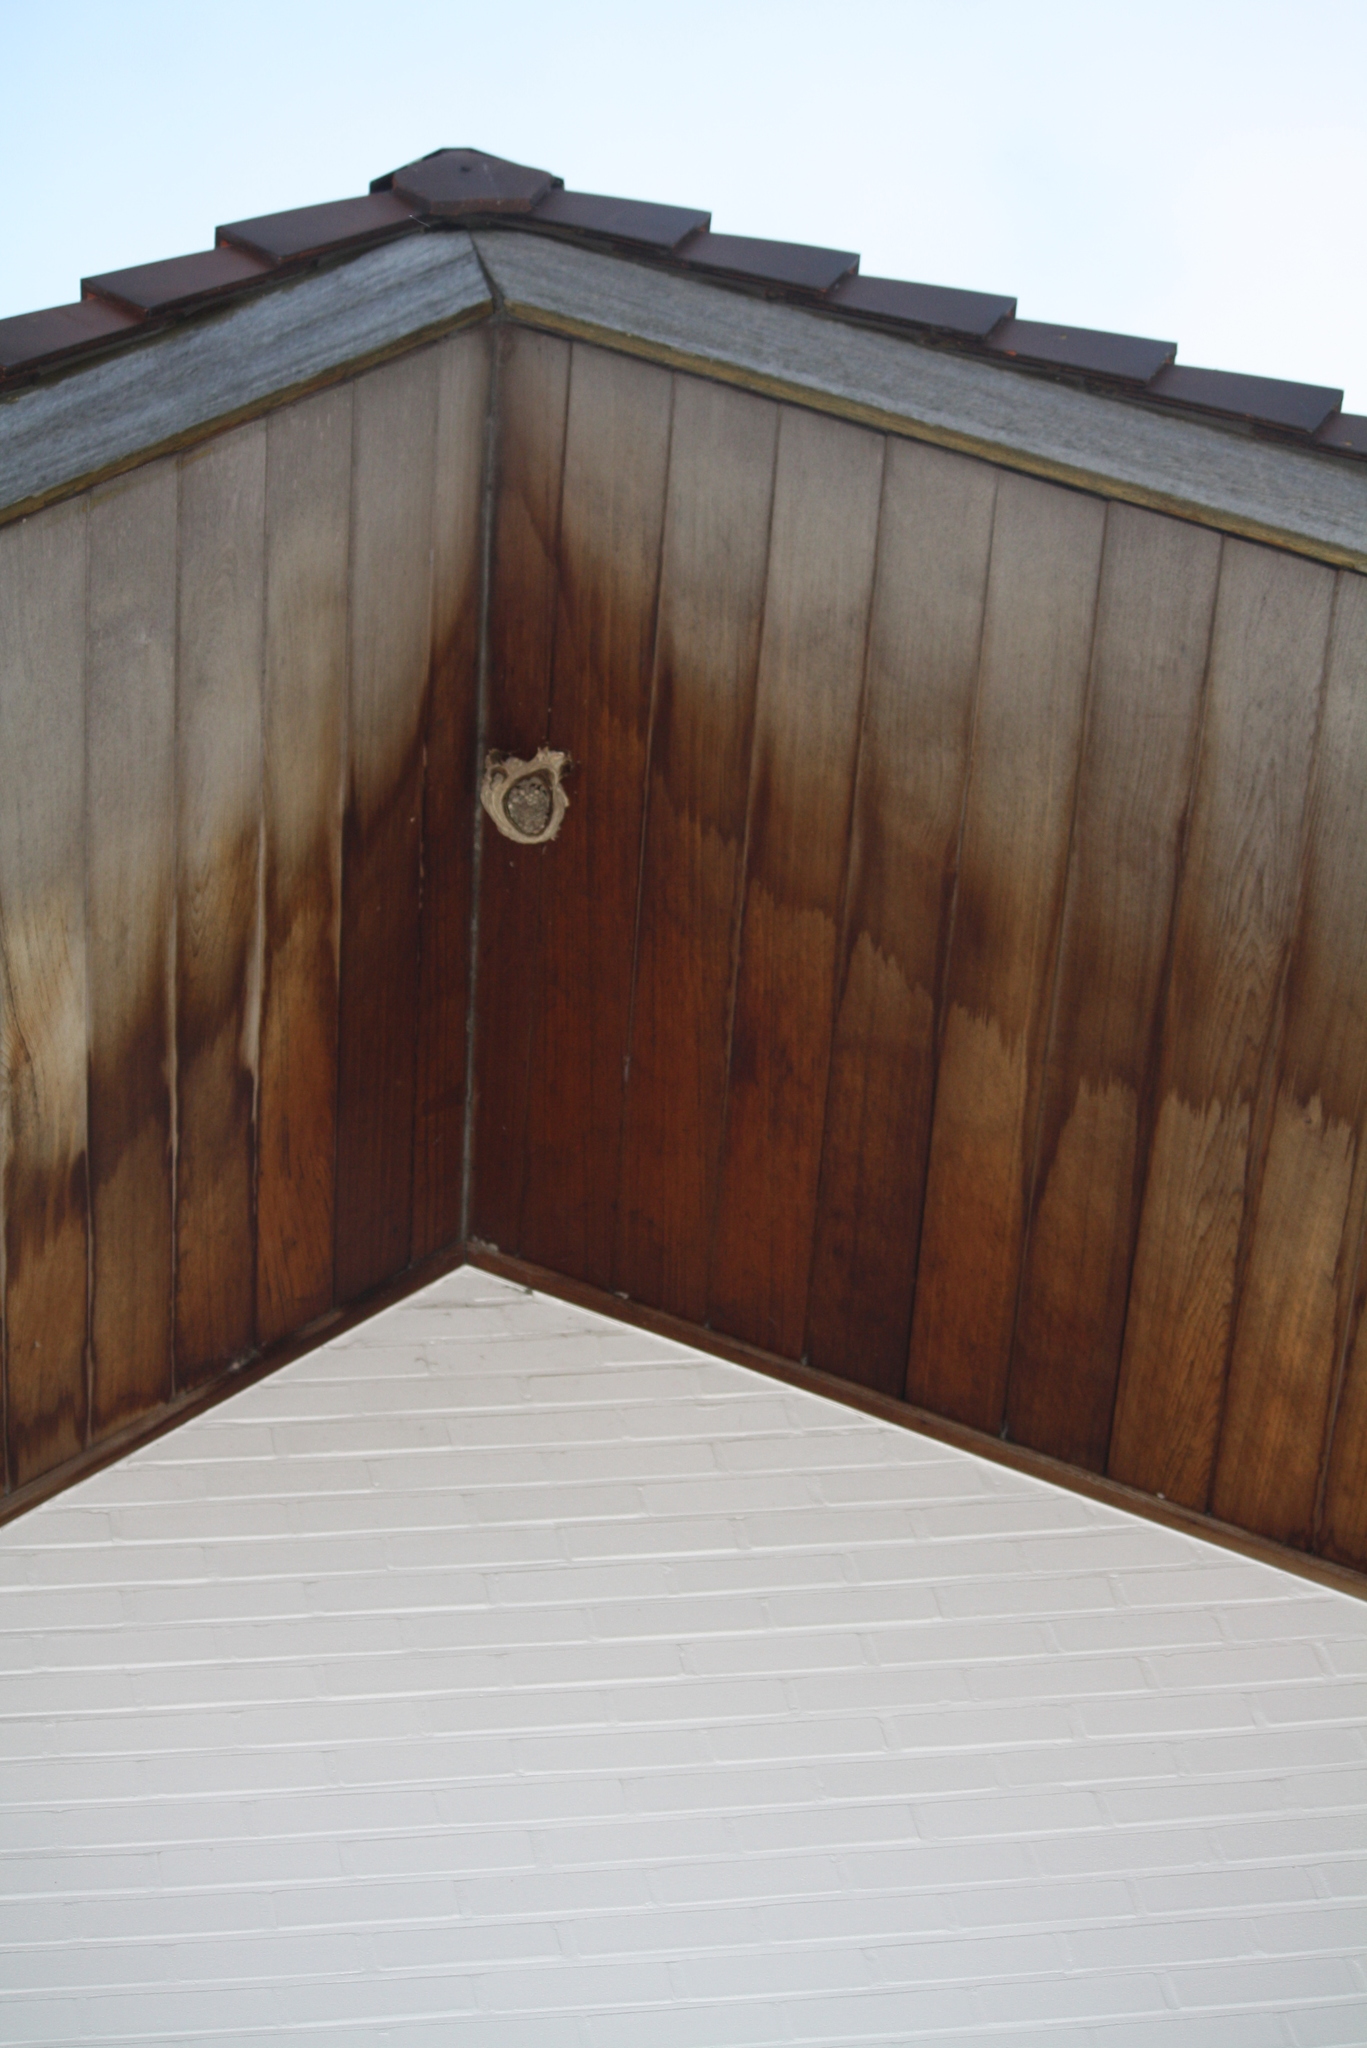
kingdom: Animalia
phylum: Arthropoda
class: Insecta
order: Hymenoptera
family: Vespidae
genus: Vespa
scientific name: Vespa velutina
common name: Asian hornet
